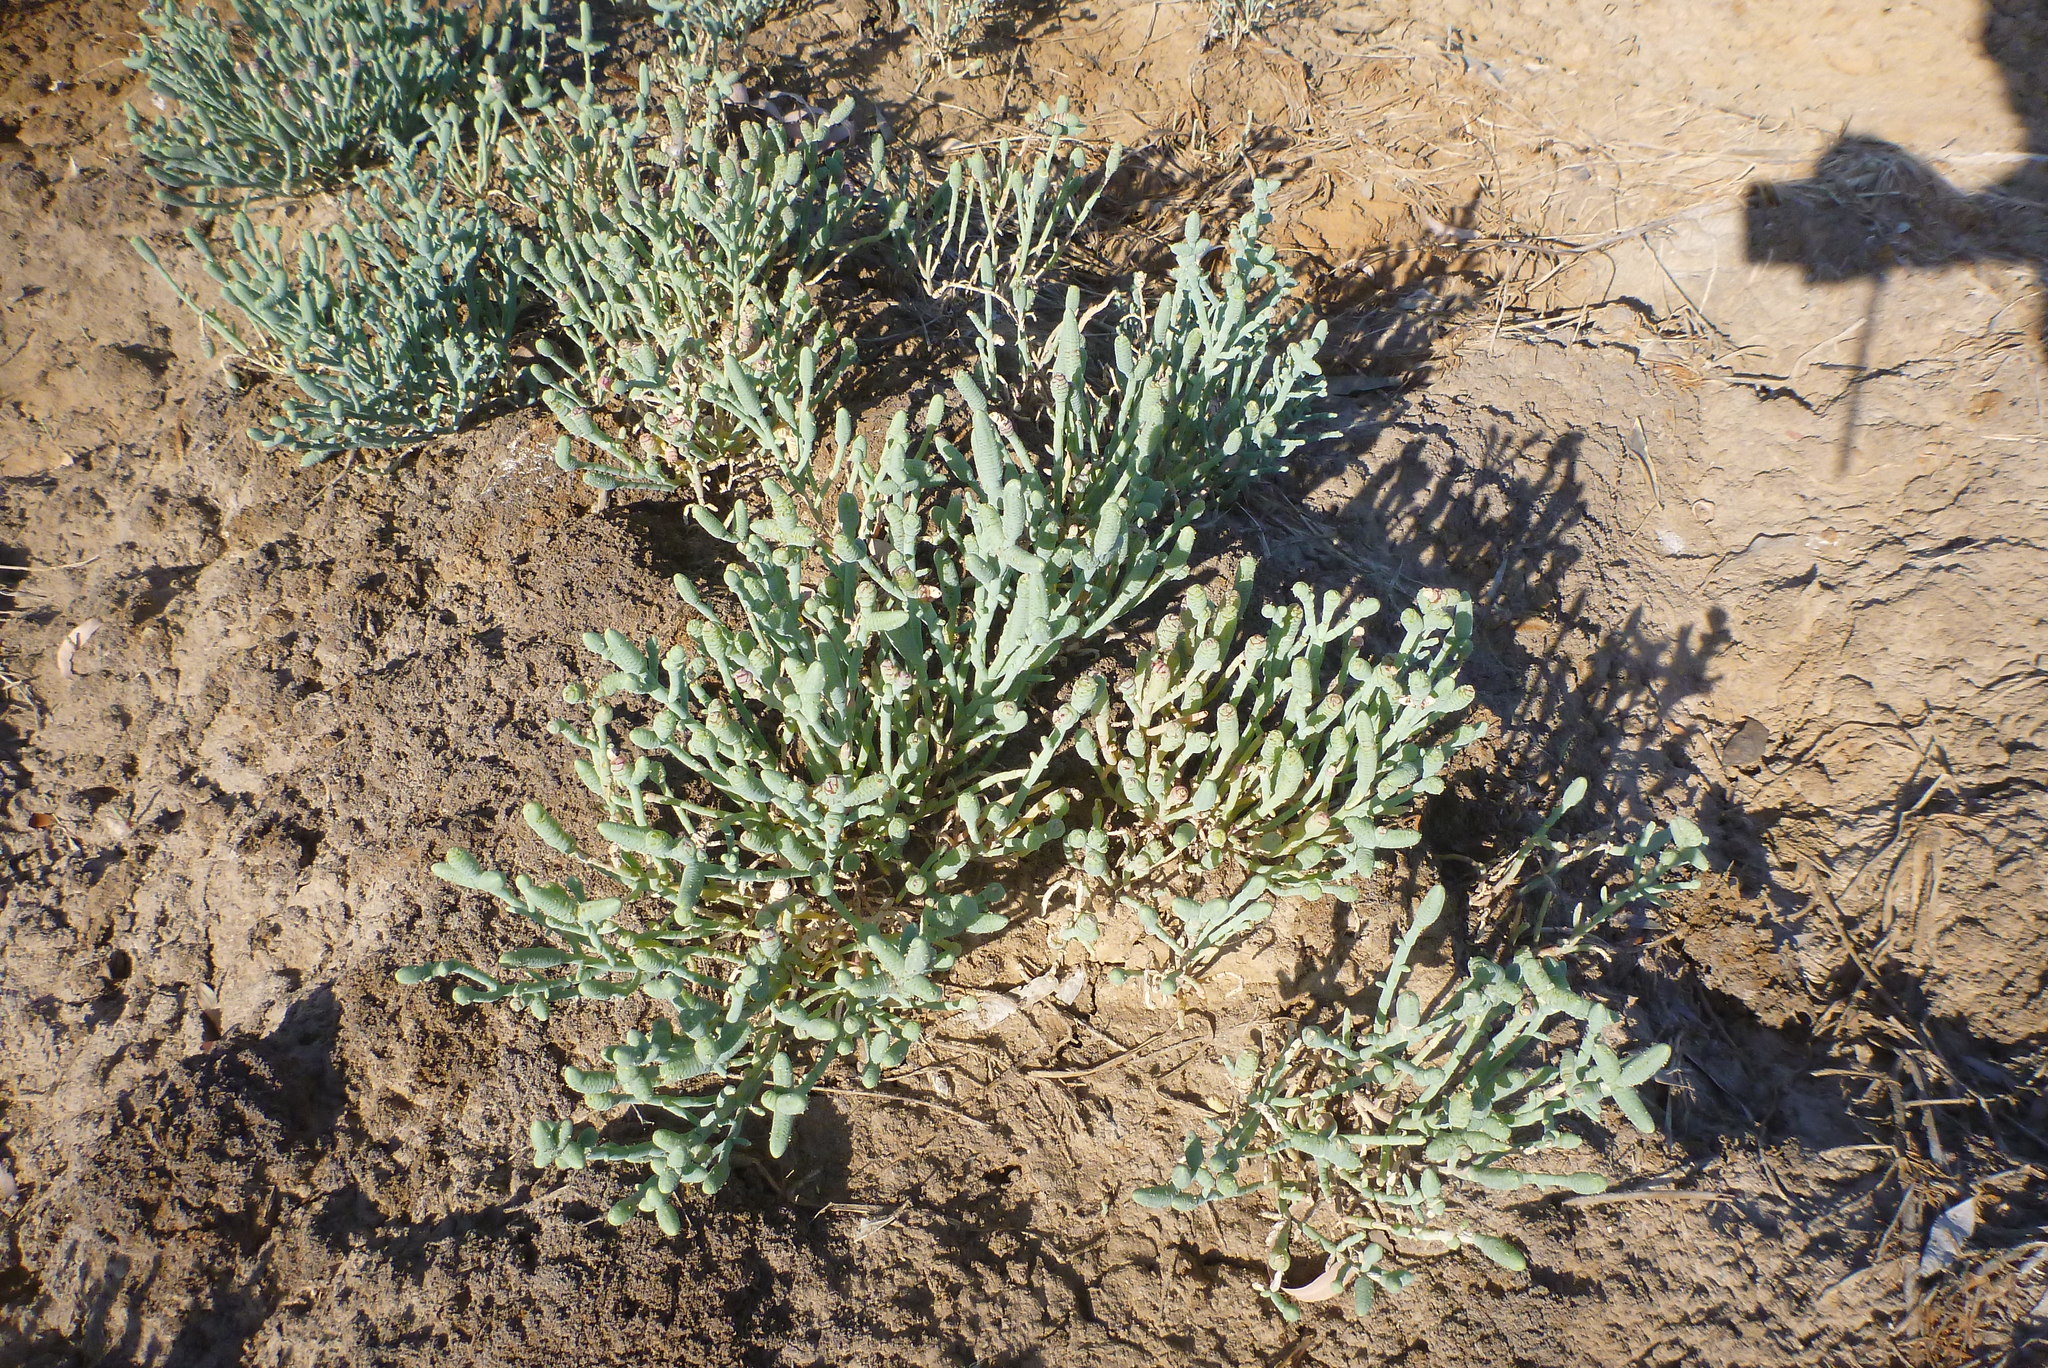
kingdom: Plantae
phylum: Tracheophyta
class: Magnoliopsida
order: Caryophyllales
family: Amaranthaceae
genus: Tecticornia
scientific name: Tecticornia australasica
